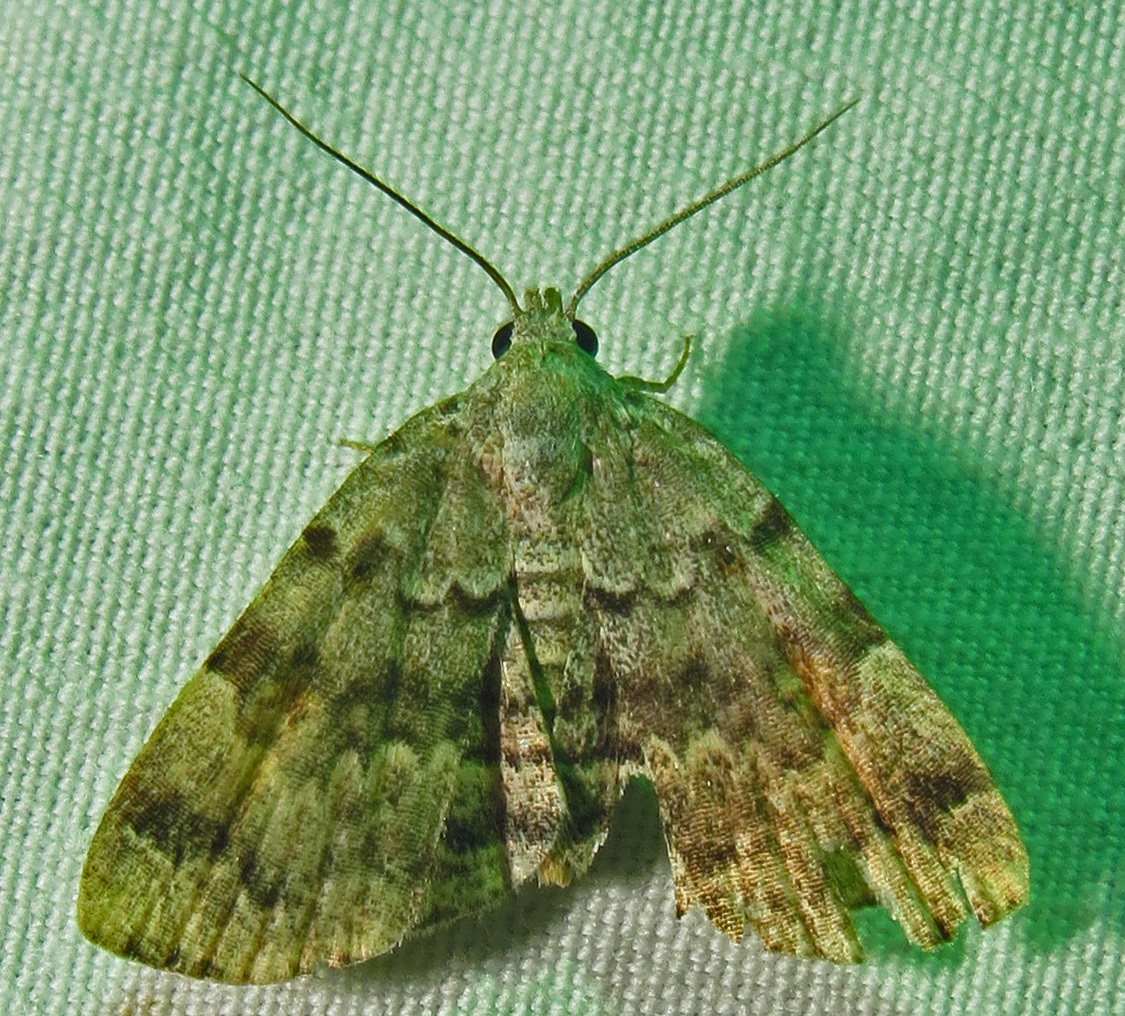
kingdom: Animalia
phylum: Arthropoda
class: Insecta
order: Lepidoptera
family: Erebidae
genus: Idia
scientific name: Idia americalis
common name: American idia moth
